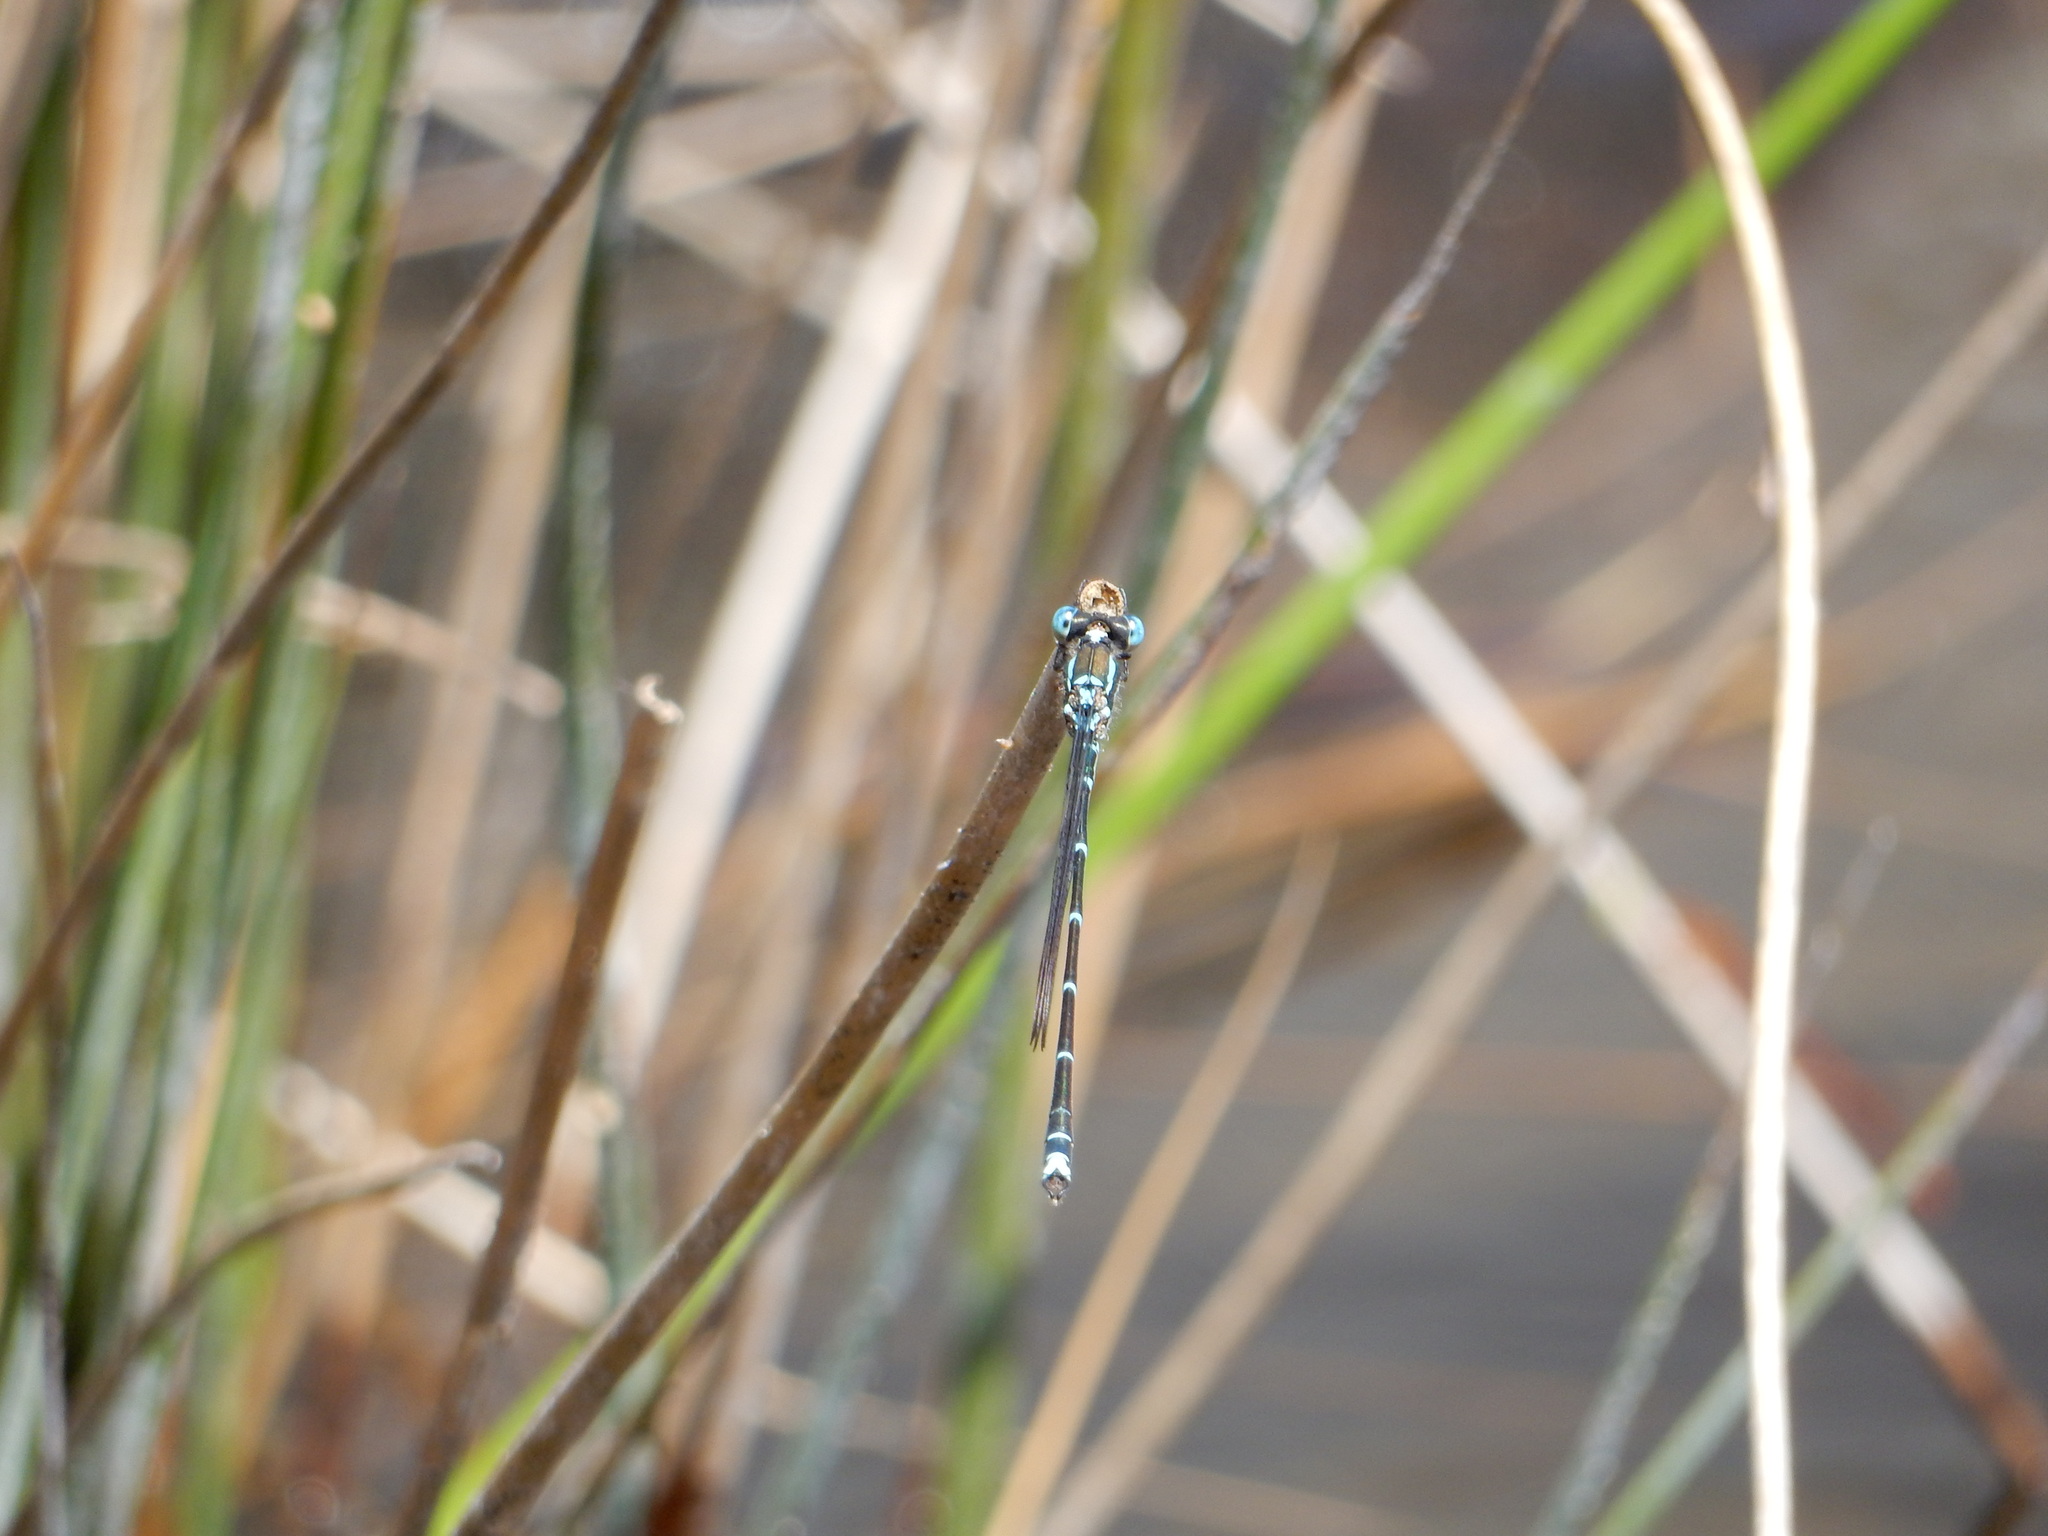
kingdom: Animalia
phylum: Arthropoda
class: Insecta
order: Odonata
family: Lestidae
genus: Austrolestes
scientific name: Austrolestes colensonis
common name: Blue damselfly
